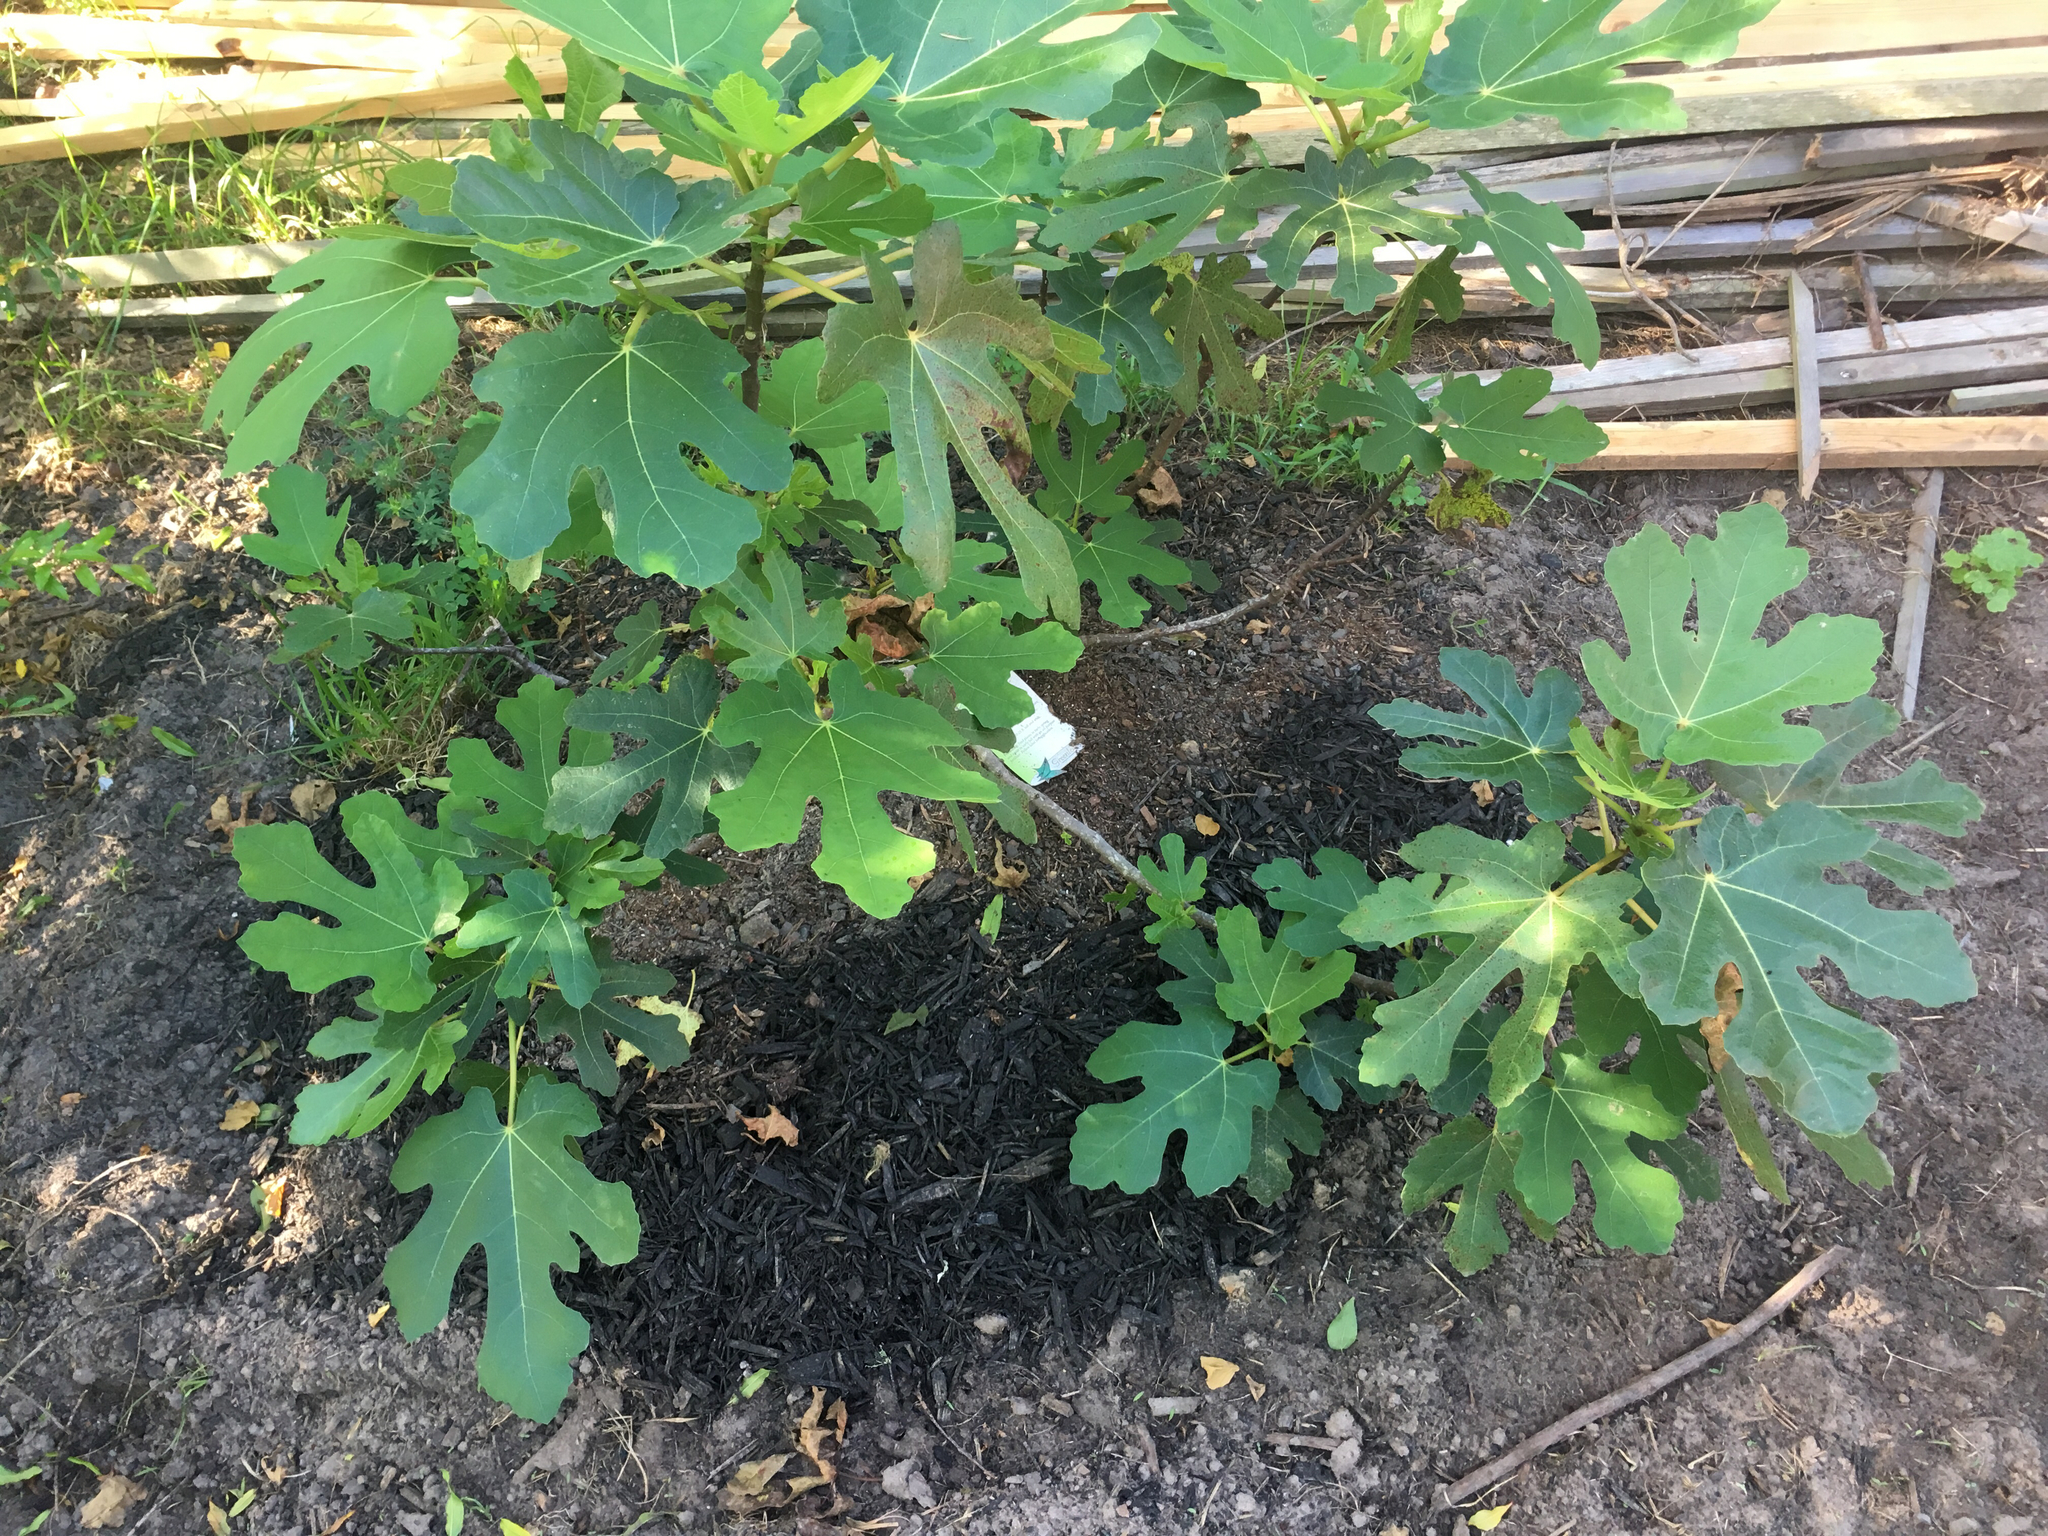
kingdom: Plantae
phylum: Tracheophyta
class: Magnoliopsida
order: Rosales
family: Moraceae
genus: Ficus
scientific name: Ficus carica
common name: Fig
